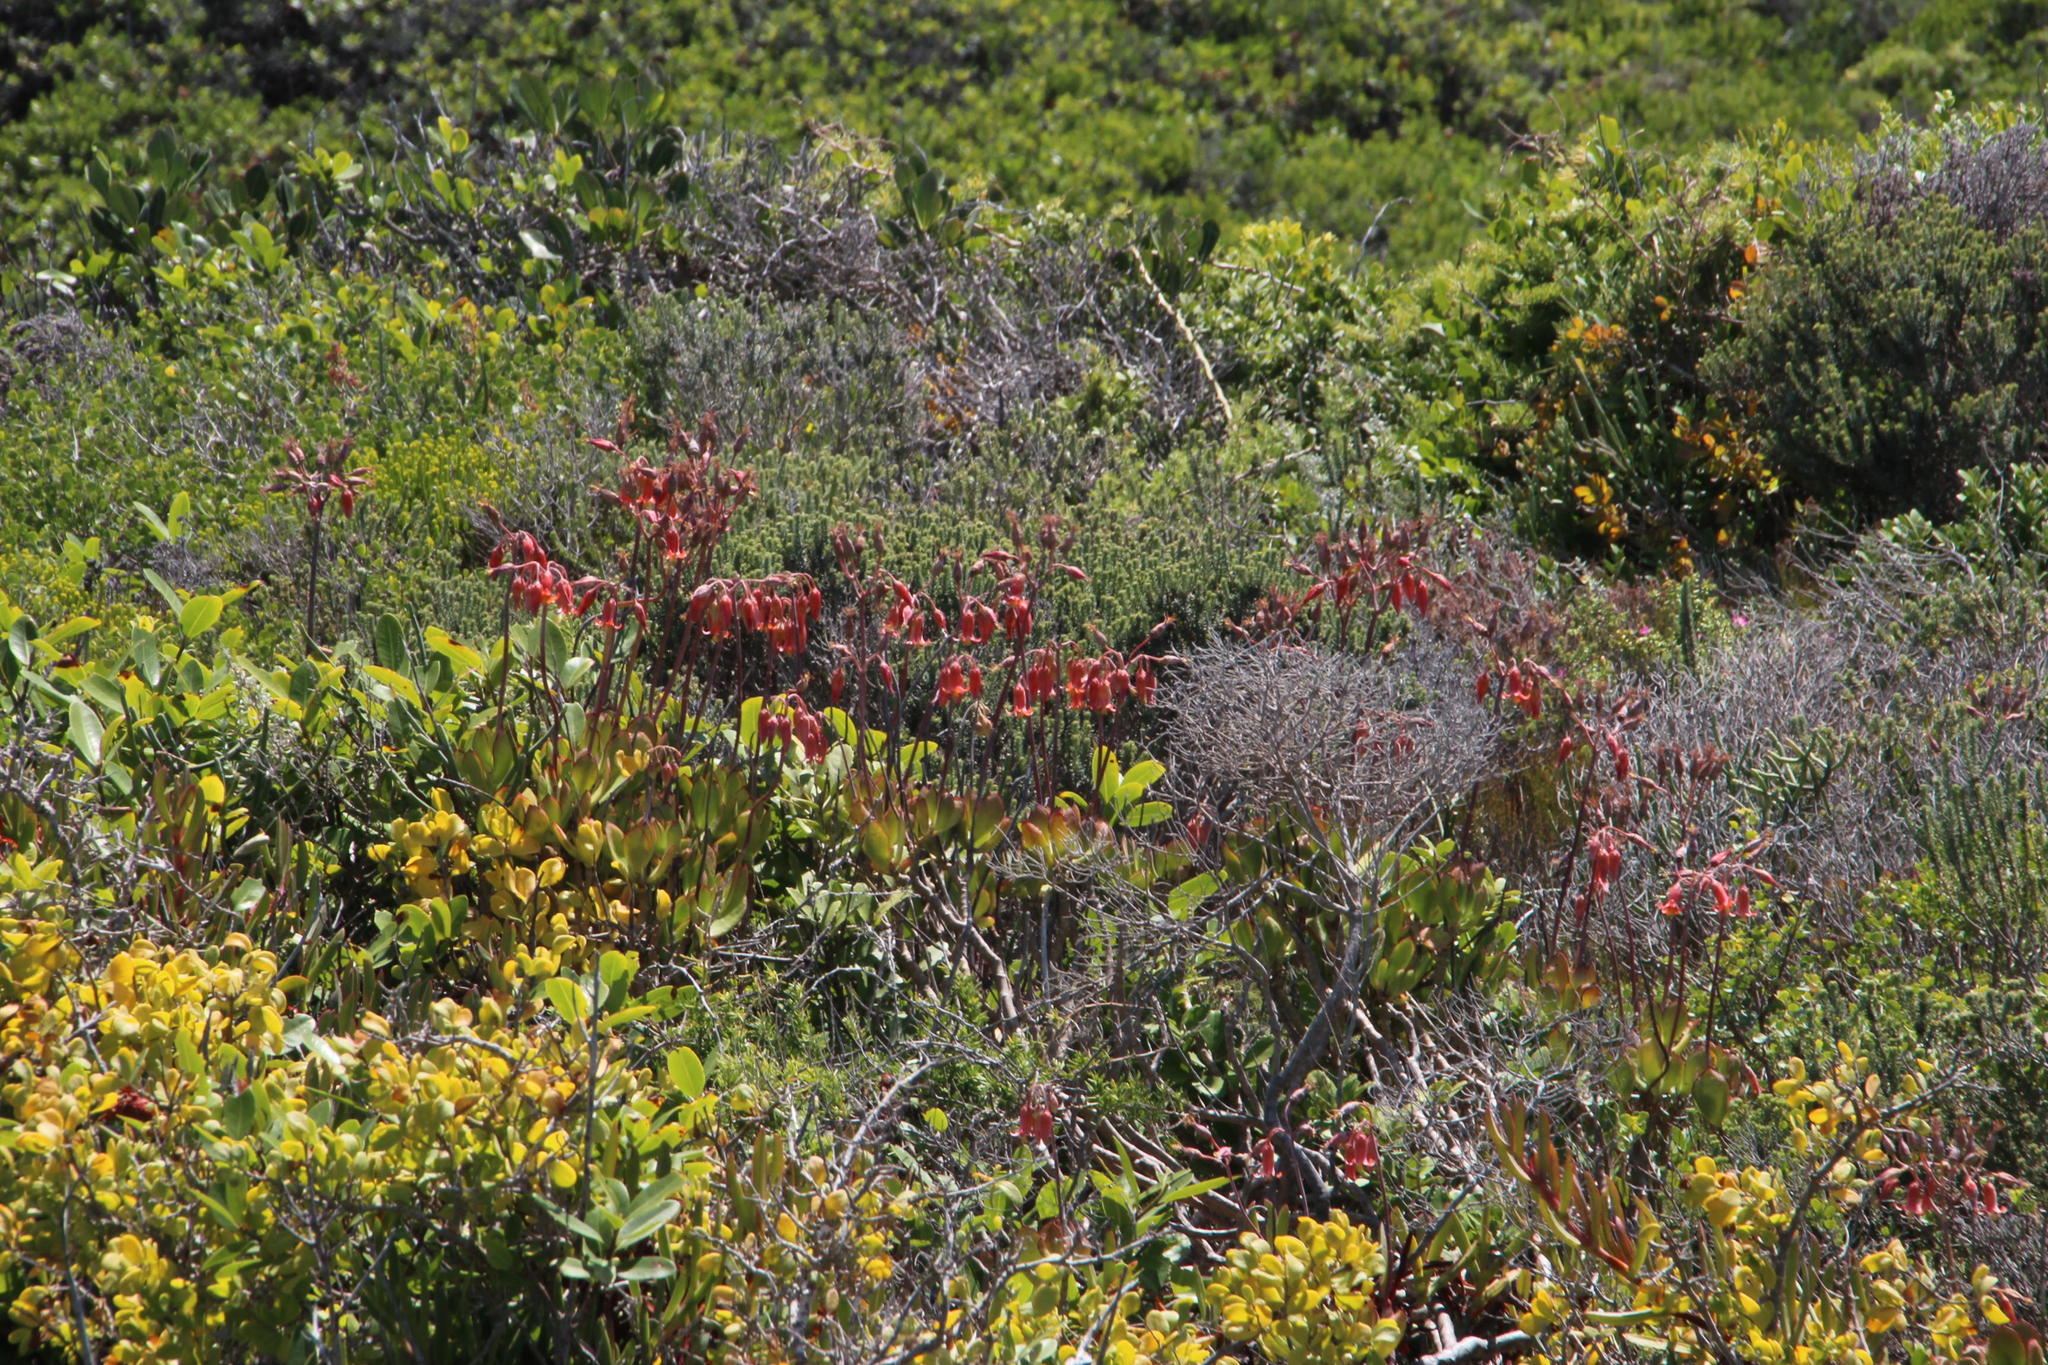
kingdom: Plantae
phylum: Tracheophyta
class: Magnoliopsida
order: Saxifragales
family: Crassulaceae
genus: Cotyledon
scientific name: Cotyledon orbiculata
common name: Pig's ear
